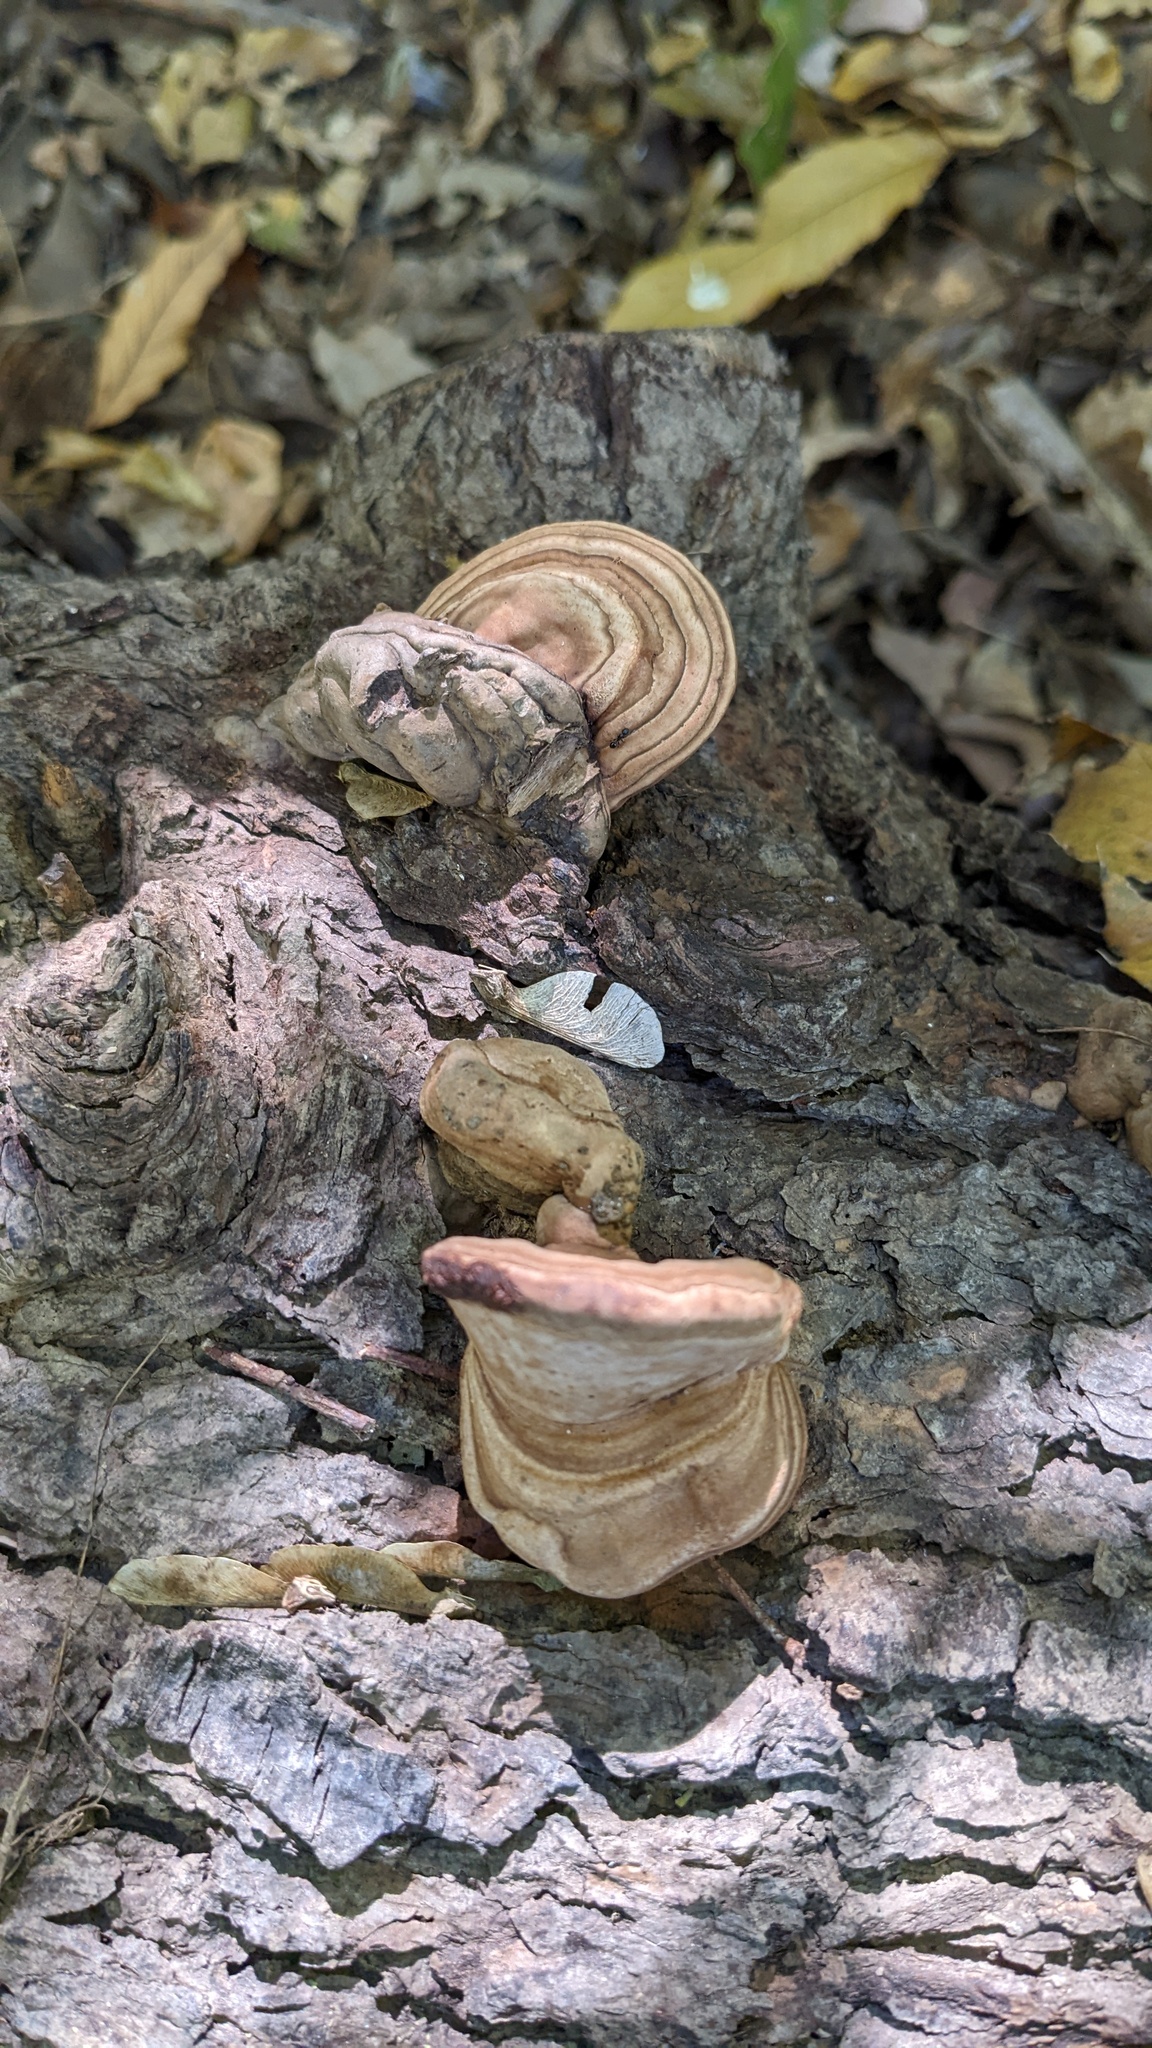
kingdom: Fungi
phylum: Basidiomycota
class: Agaricomycetes
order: Polyporales
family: Polyporaceae
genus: Ganoderma
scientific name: Ganoderma applanatum
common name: Artist's bracket
